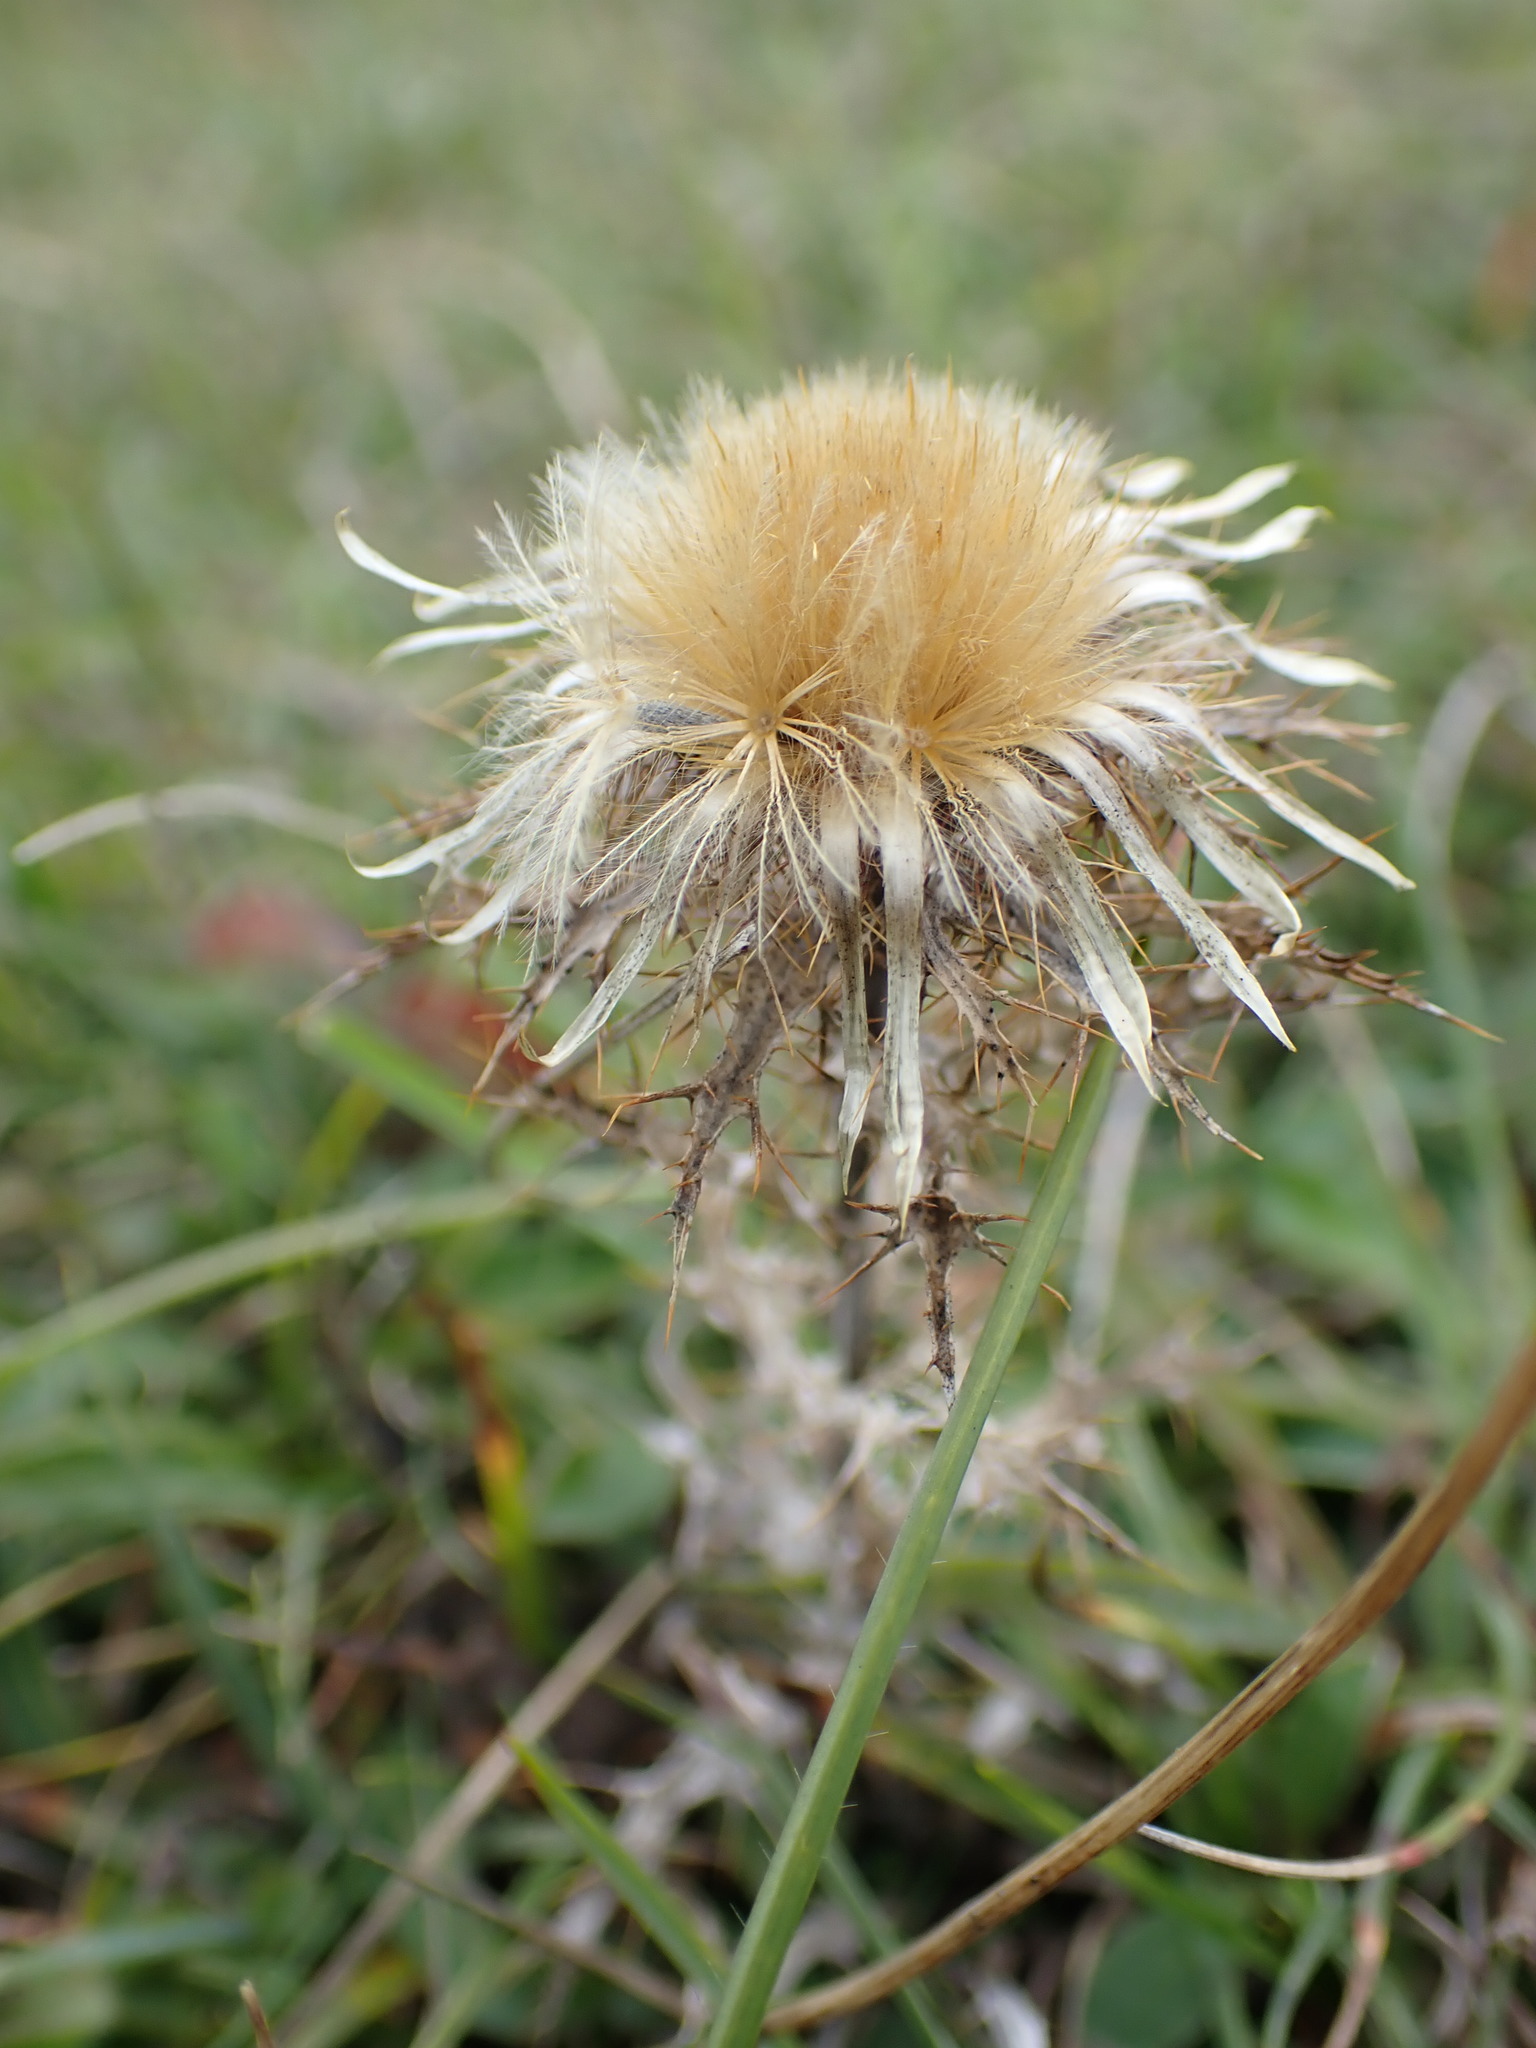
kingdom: Plantae
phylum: Tracheophyta
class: Magnoliopsida
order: Asterales
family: Asteraceae
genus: Carlina
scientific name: Carlina vulgaris
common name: Carline thistle
